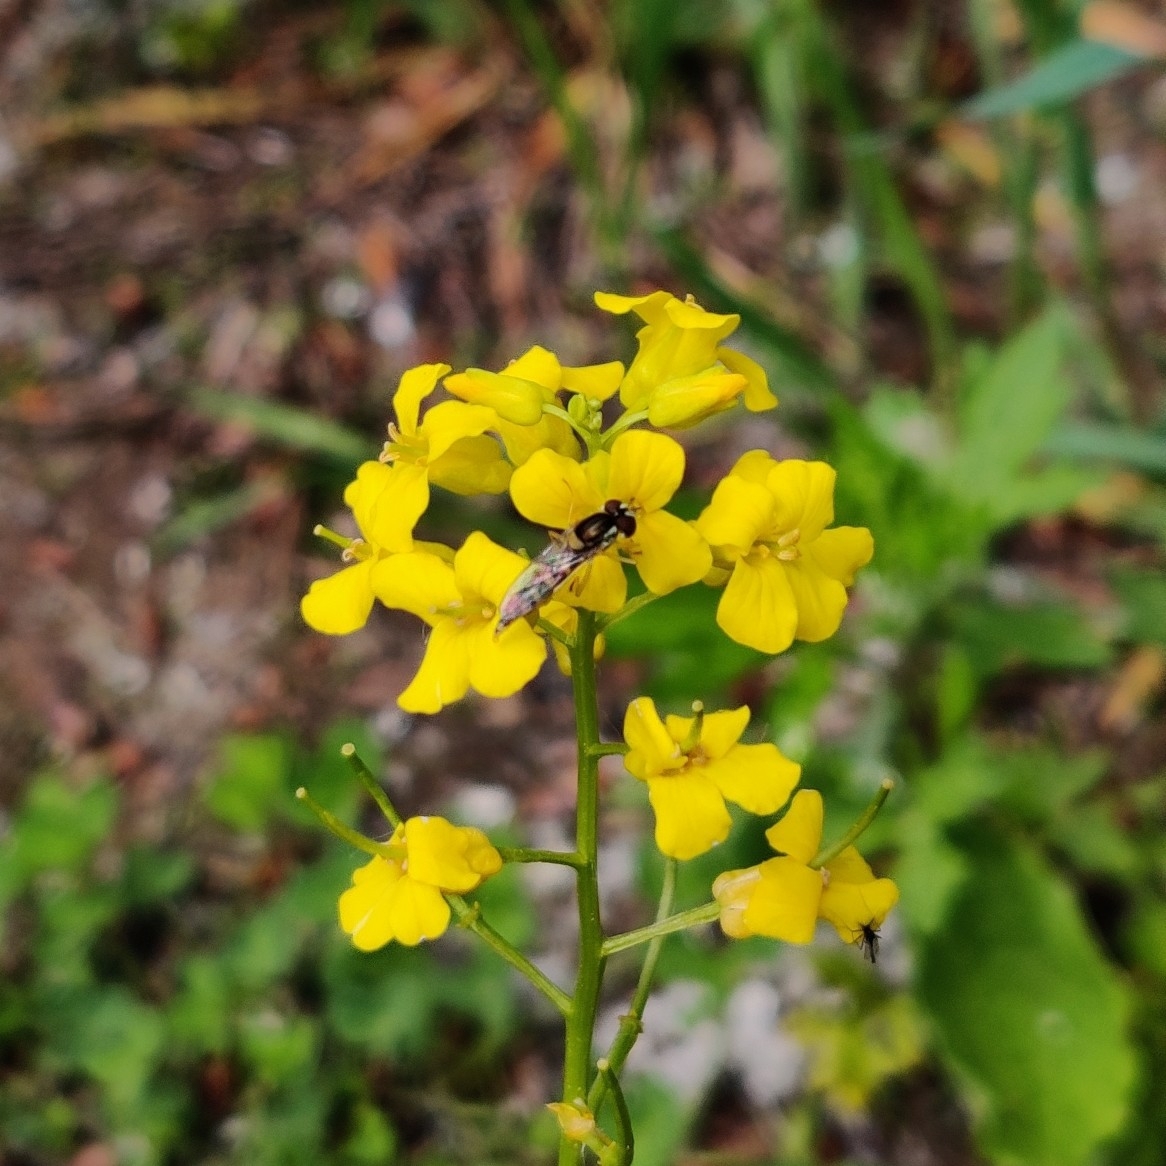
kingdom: Animalia
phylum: Arthropoda
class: Insecta
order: Diptera
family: Syrphidae
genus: Sphaerophoria
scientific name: Sphaerophoria
